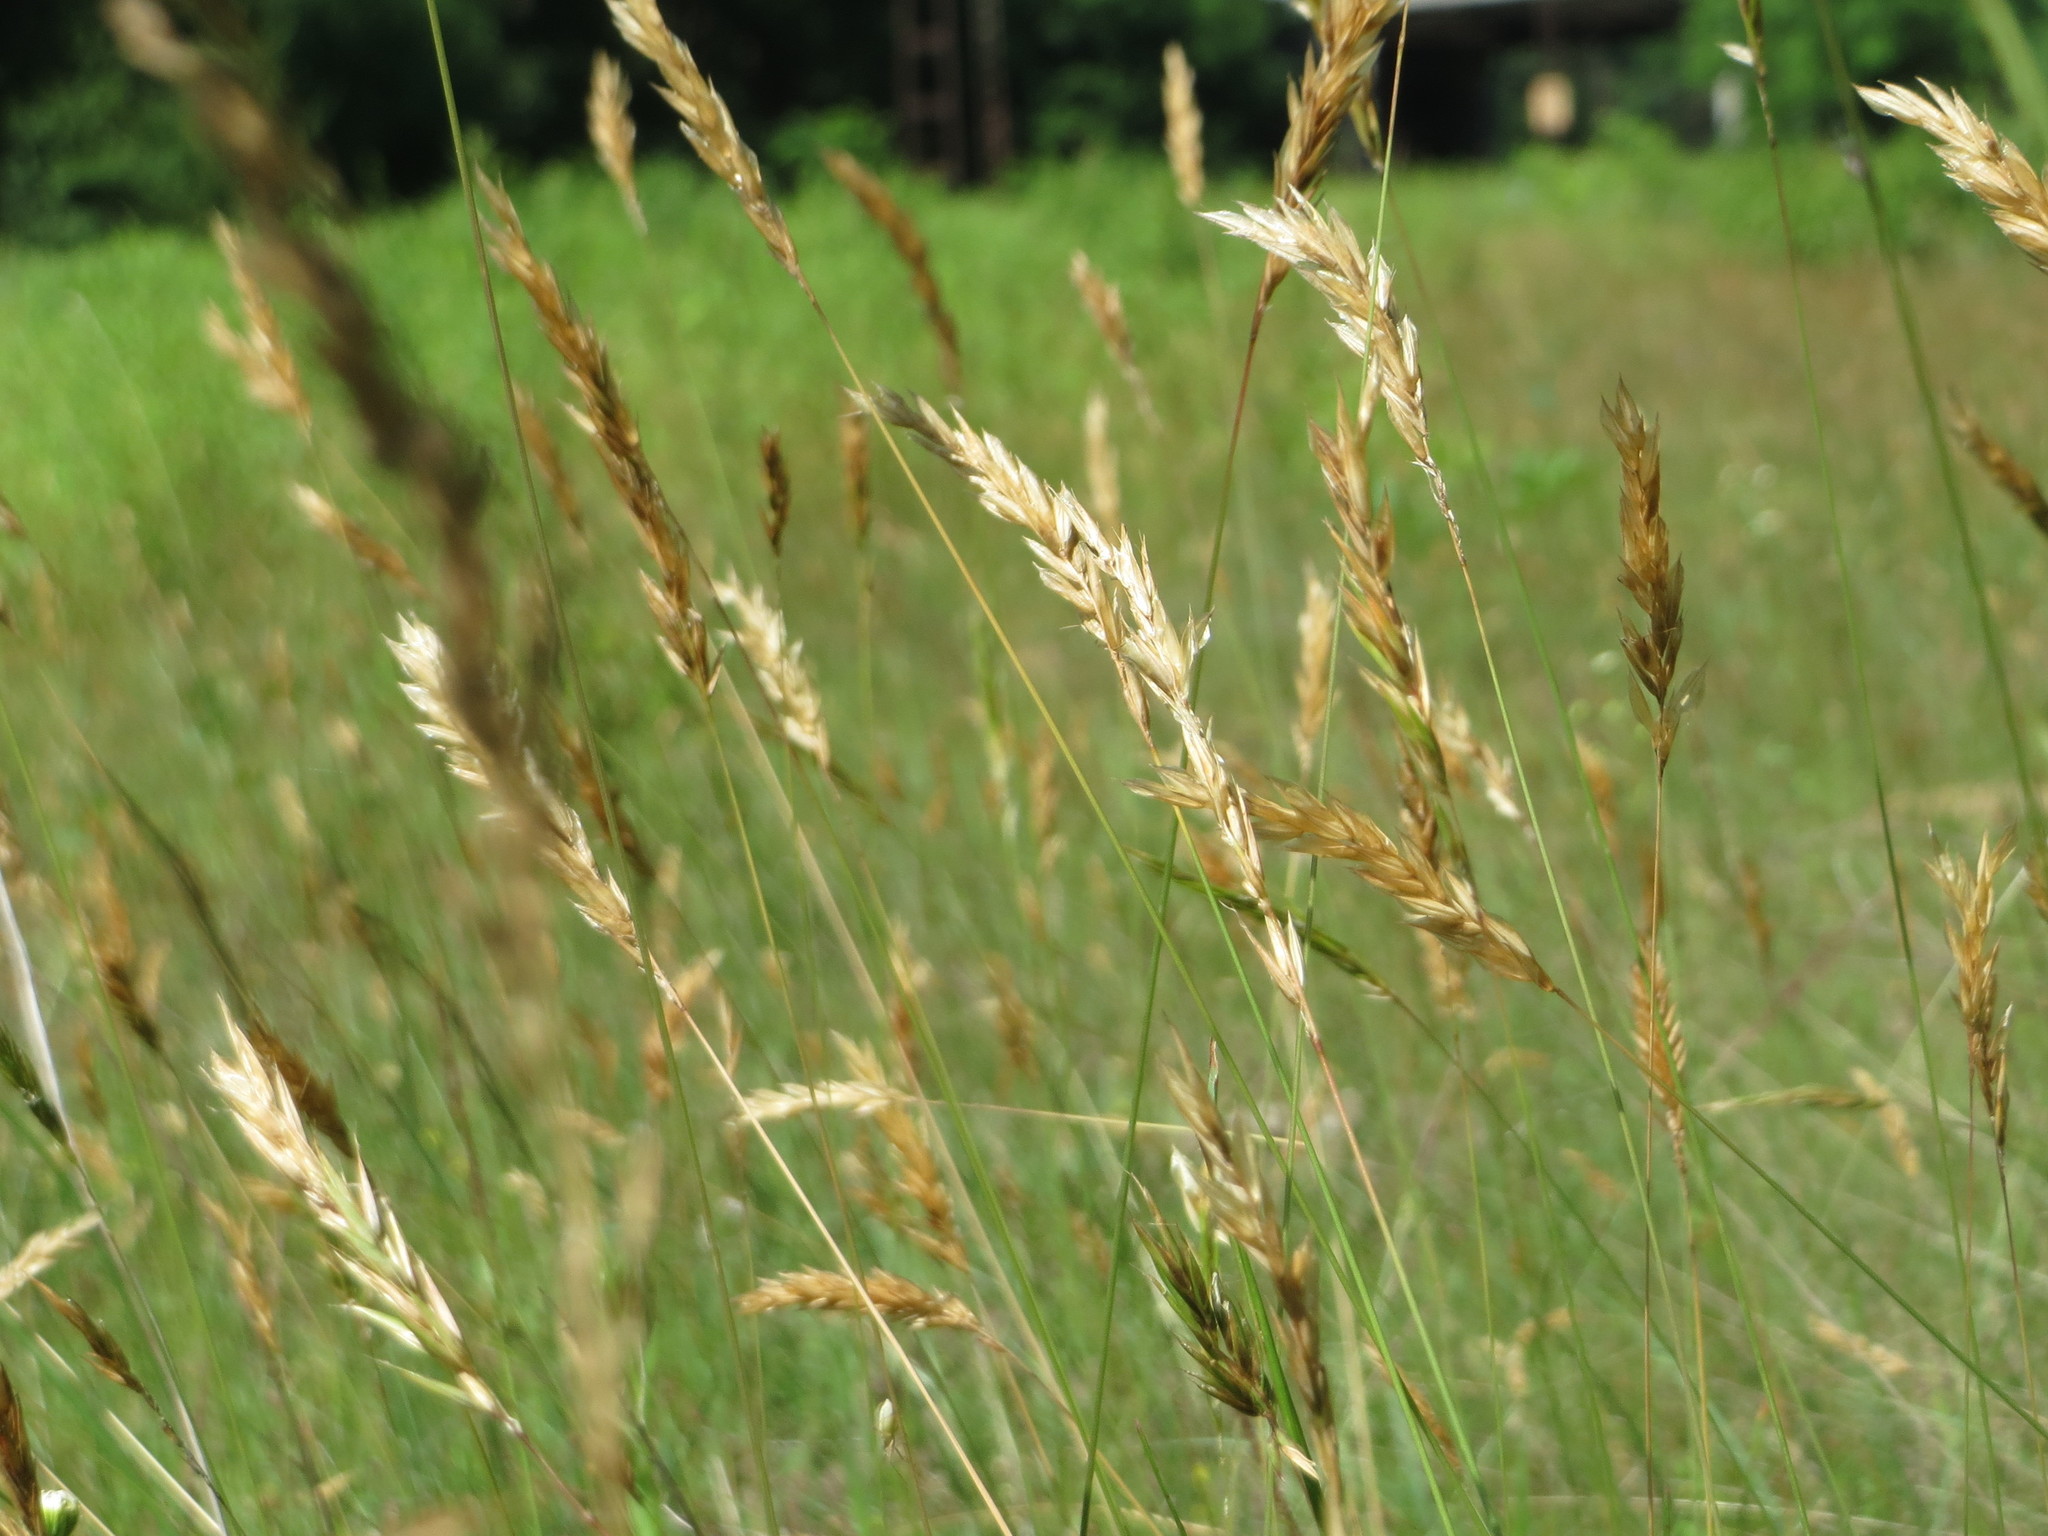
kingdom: Plantae
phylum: Tracheophyta
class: Liliopsida
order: Poales
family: Poaceae
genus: Anthoxanthum
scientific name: Anthoxanthum odoratum
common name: Sweet vernalgrass
